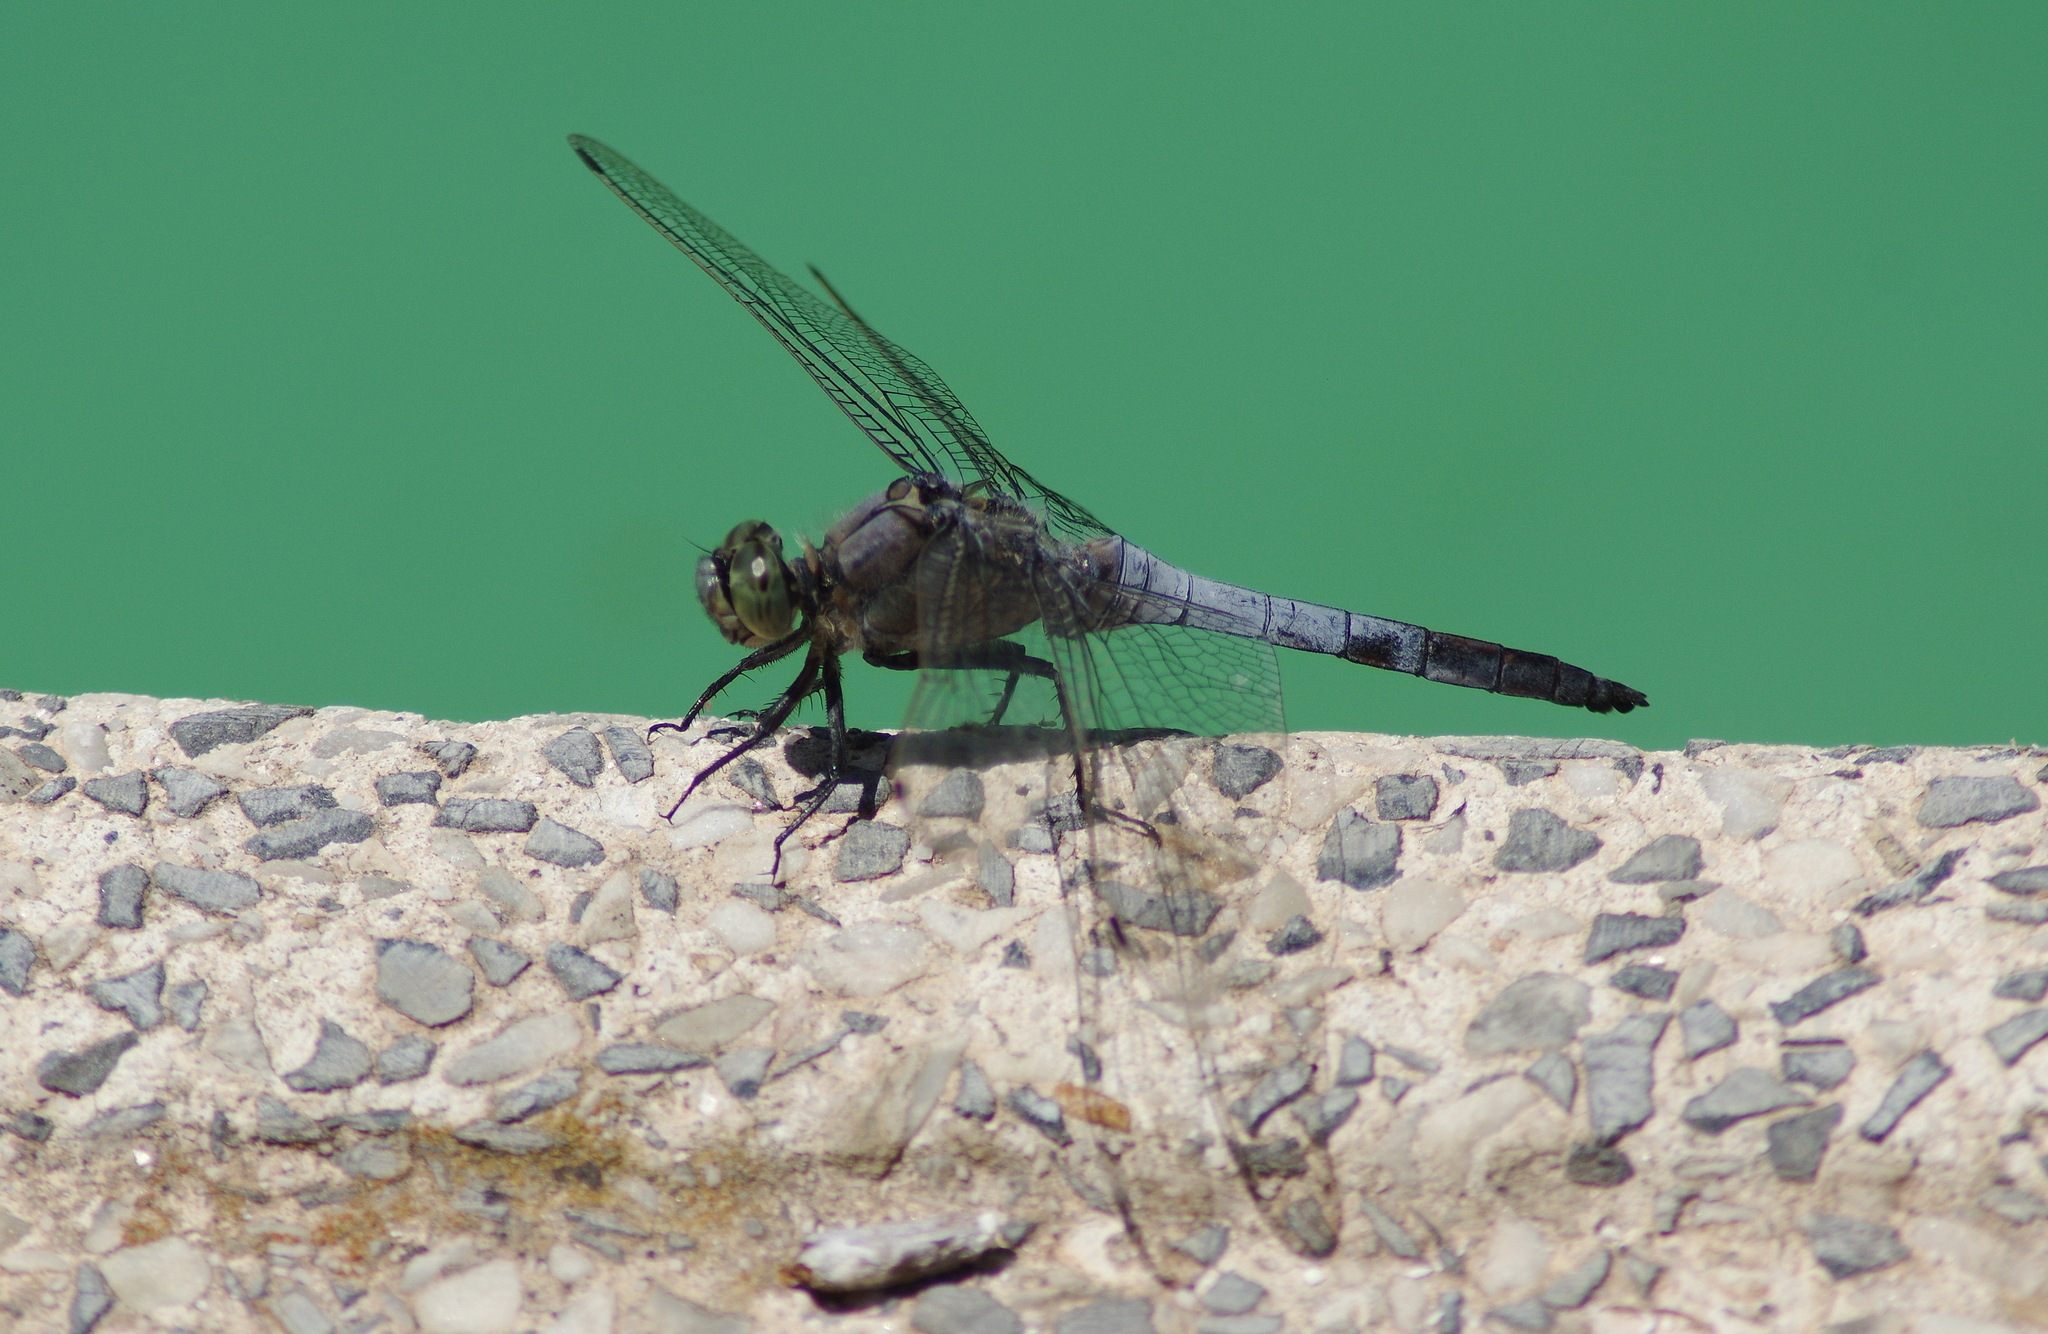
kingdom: Animalia
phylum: Arthropoda
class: Insecta
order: Odonata
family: Libellulidae
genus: Orthetrum
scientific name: Orthetrum cancellatum
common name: Black-tailed skimmer
